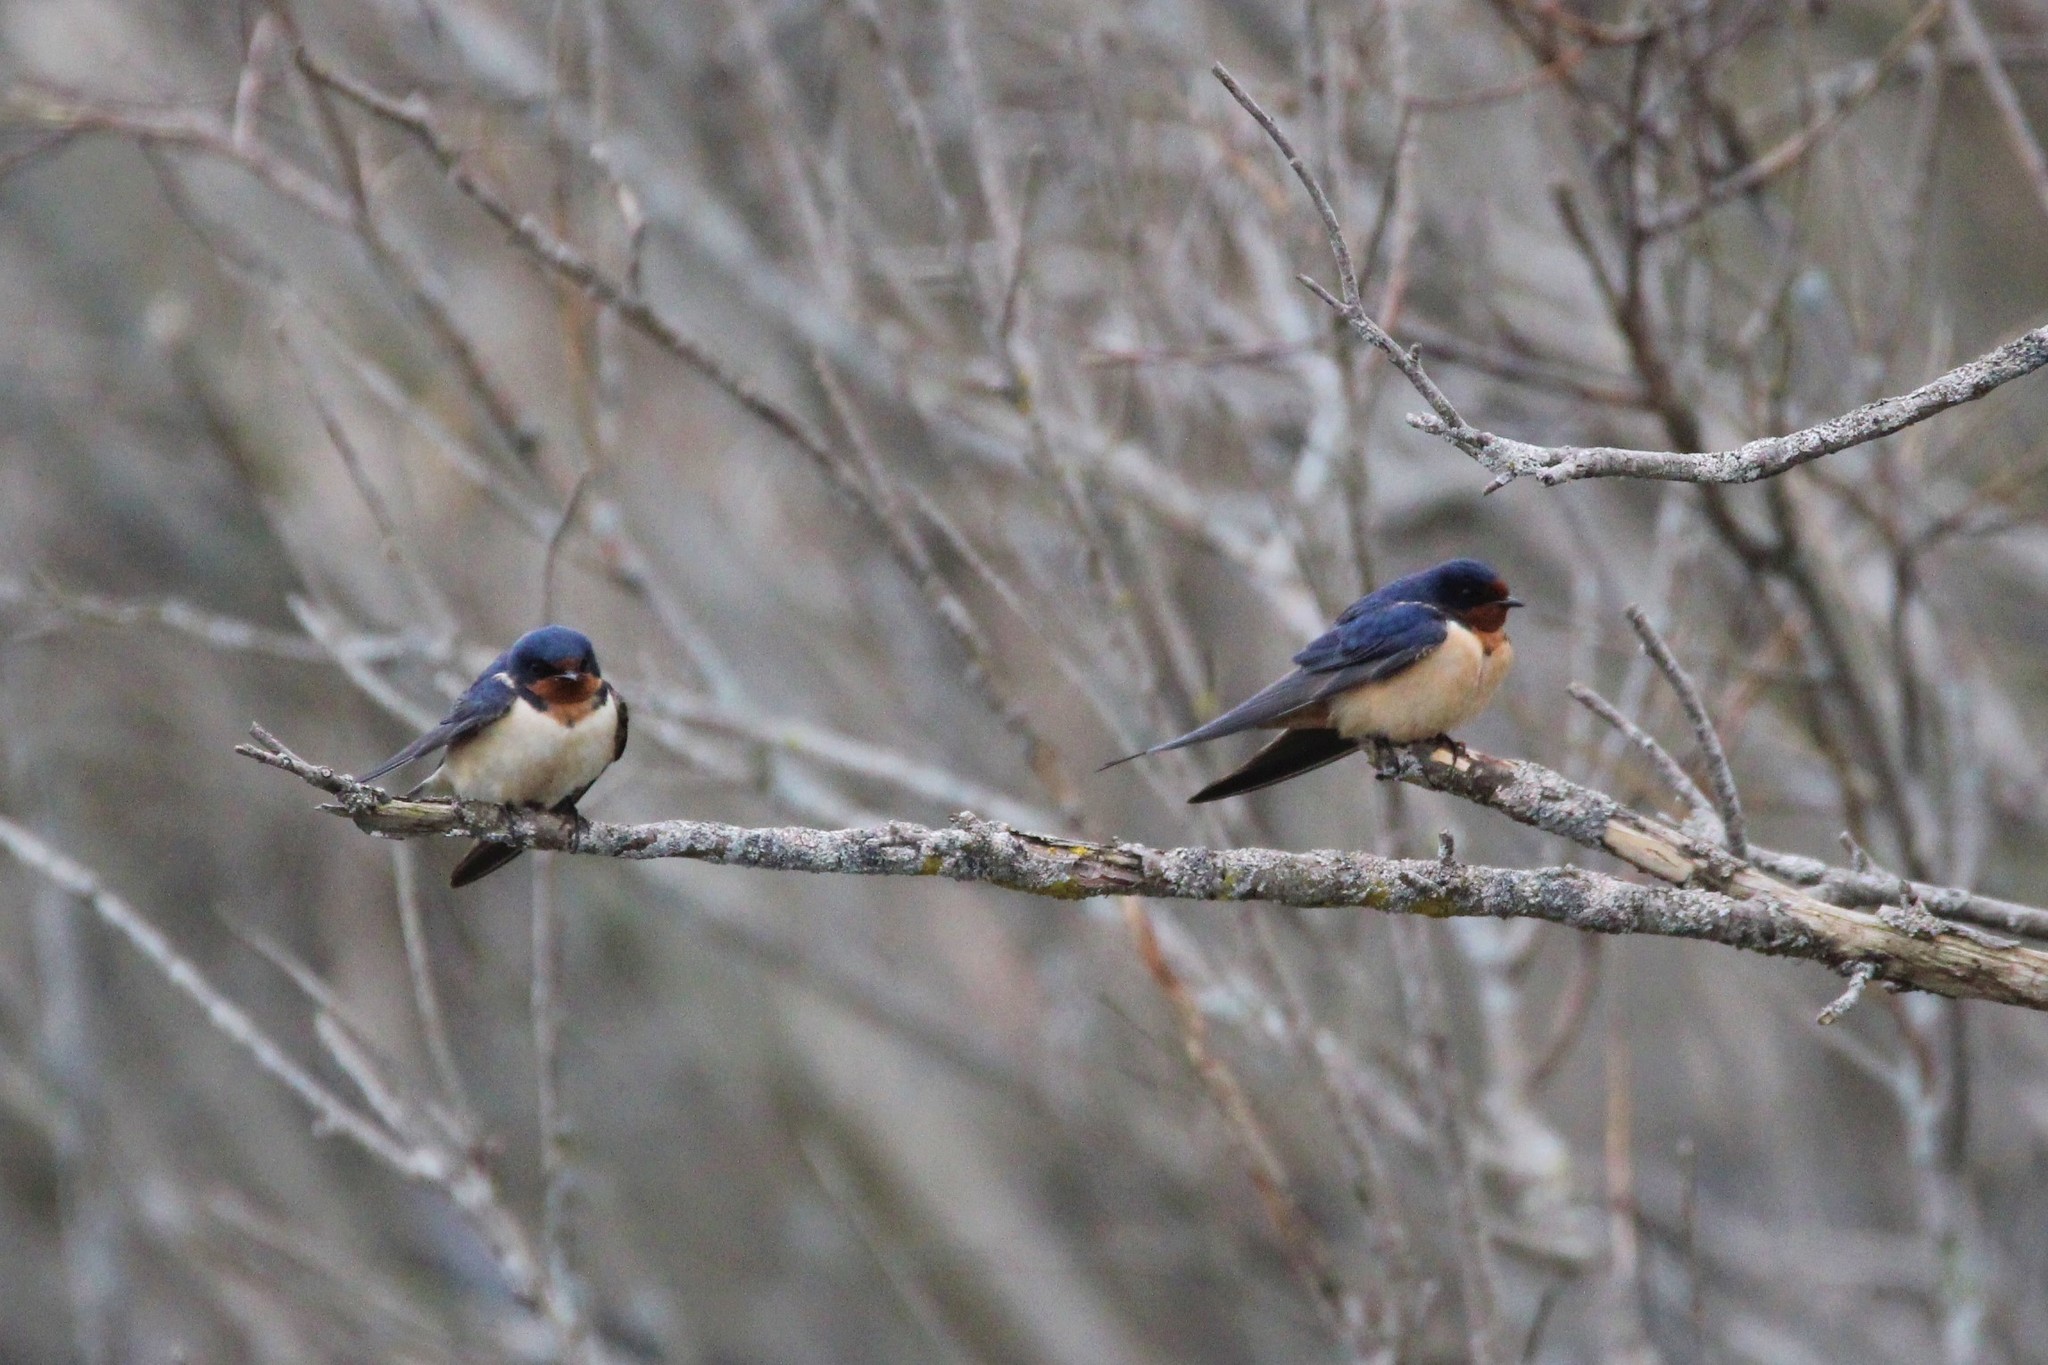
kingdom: Animalia
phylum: Chordata
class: Aves
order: Passeriformes
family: Hirundinidae
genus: Hirundo
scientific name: Hirundo rustica
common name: Barn swallow
